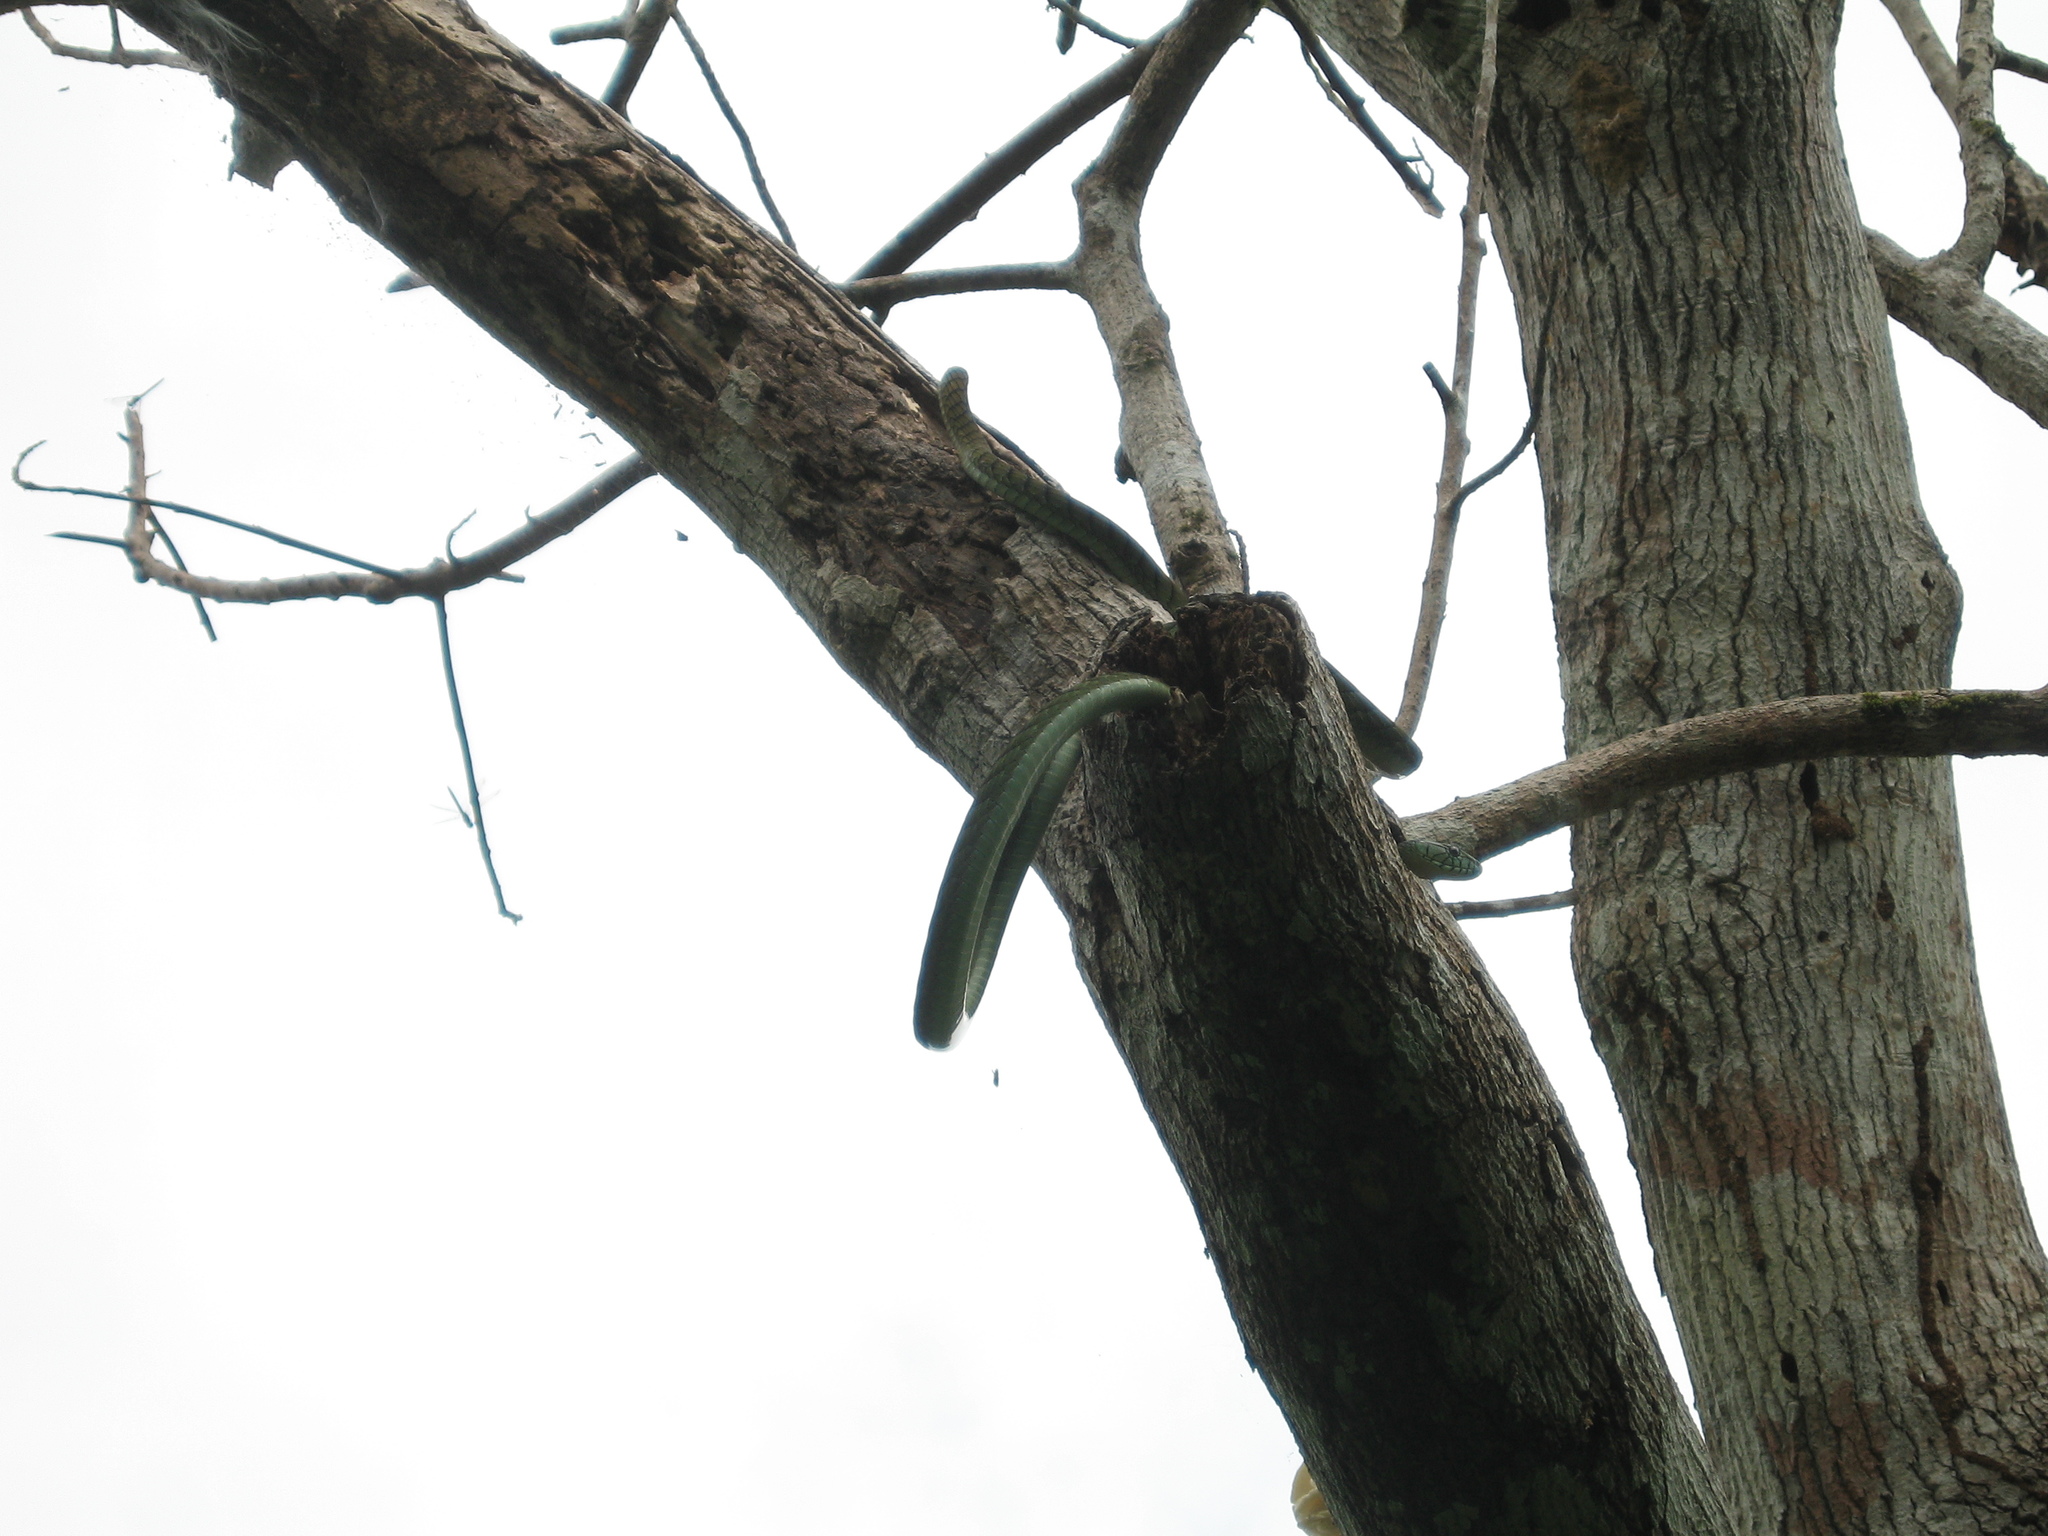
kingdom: Animalia
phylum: Chordata
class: Squamata
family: Elapidae
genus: Dendroaspis
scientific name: Dendroaspis viridis
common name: Western green mamba
